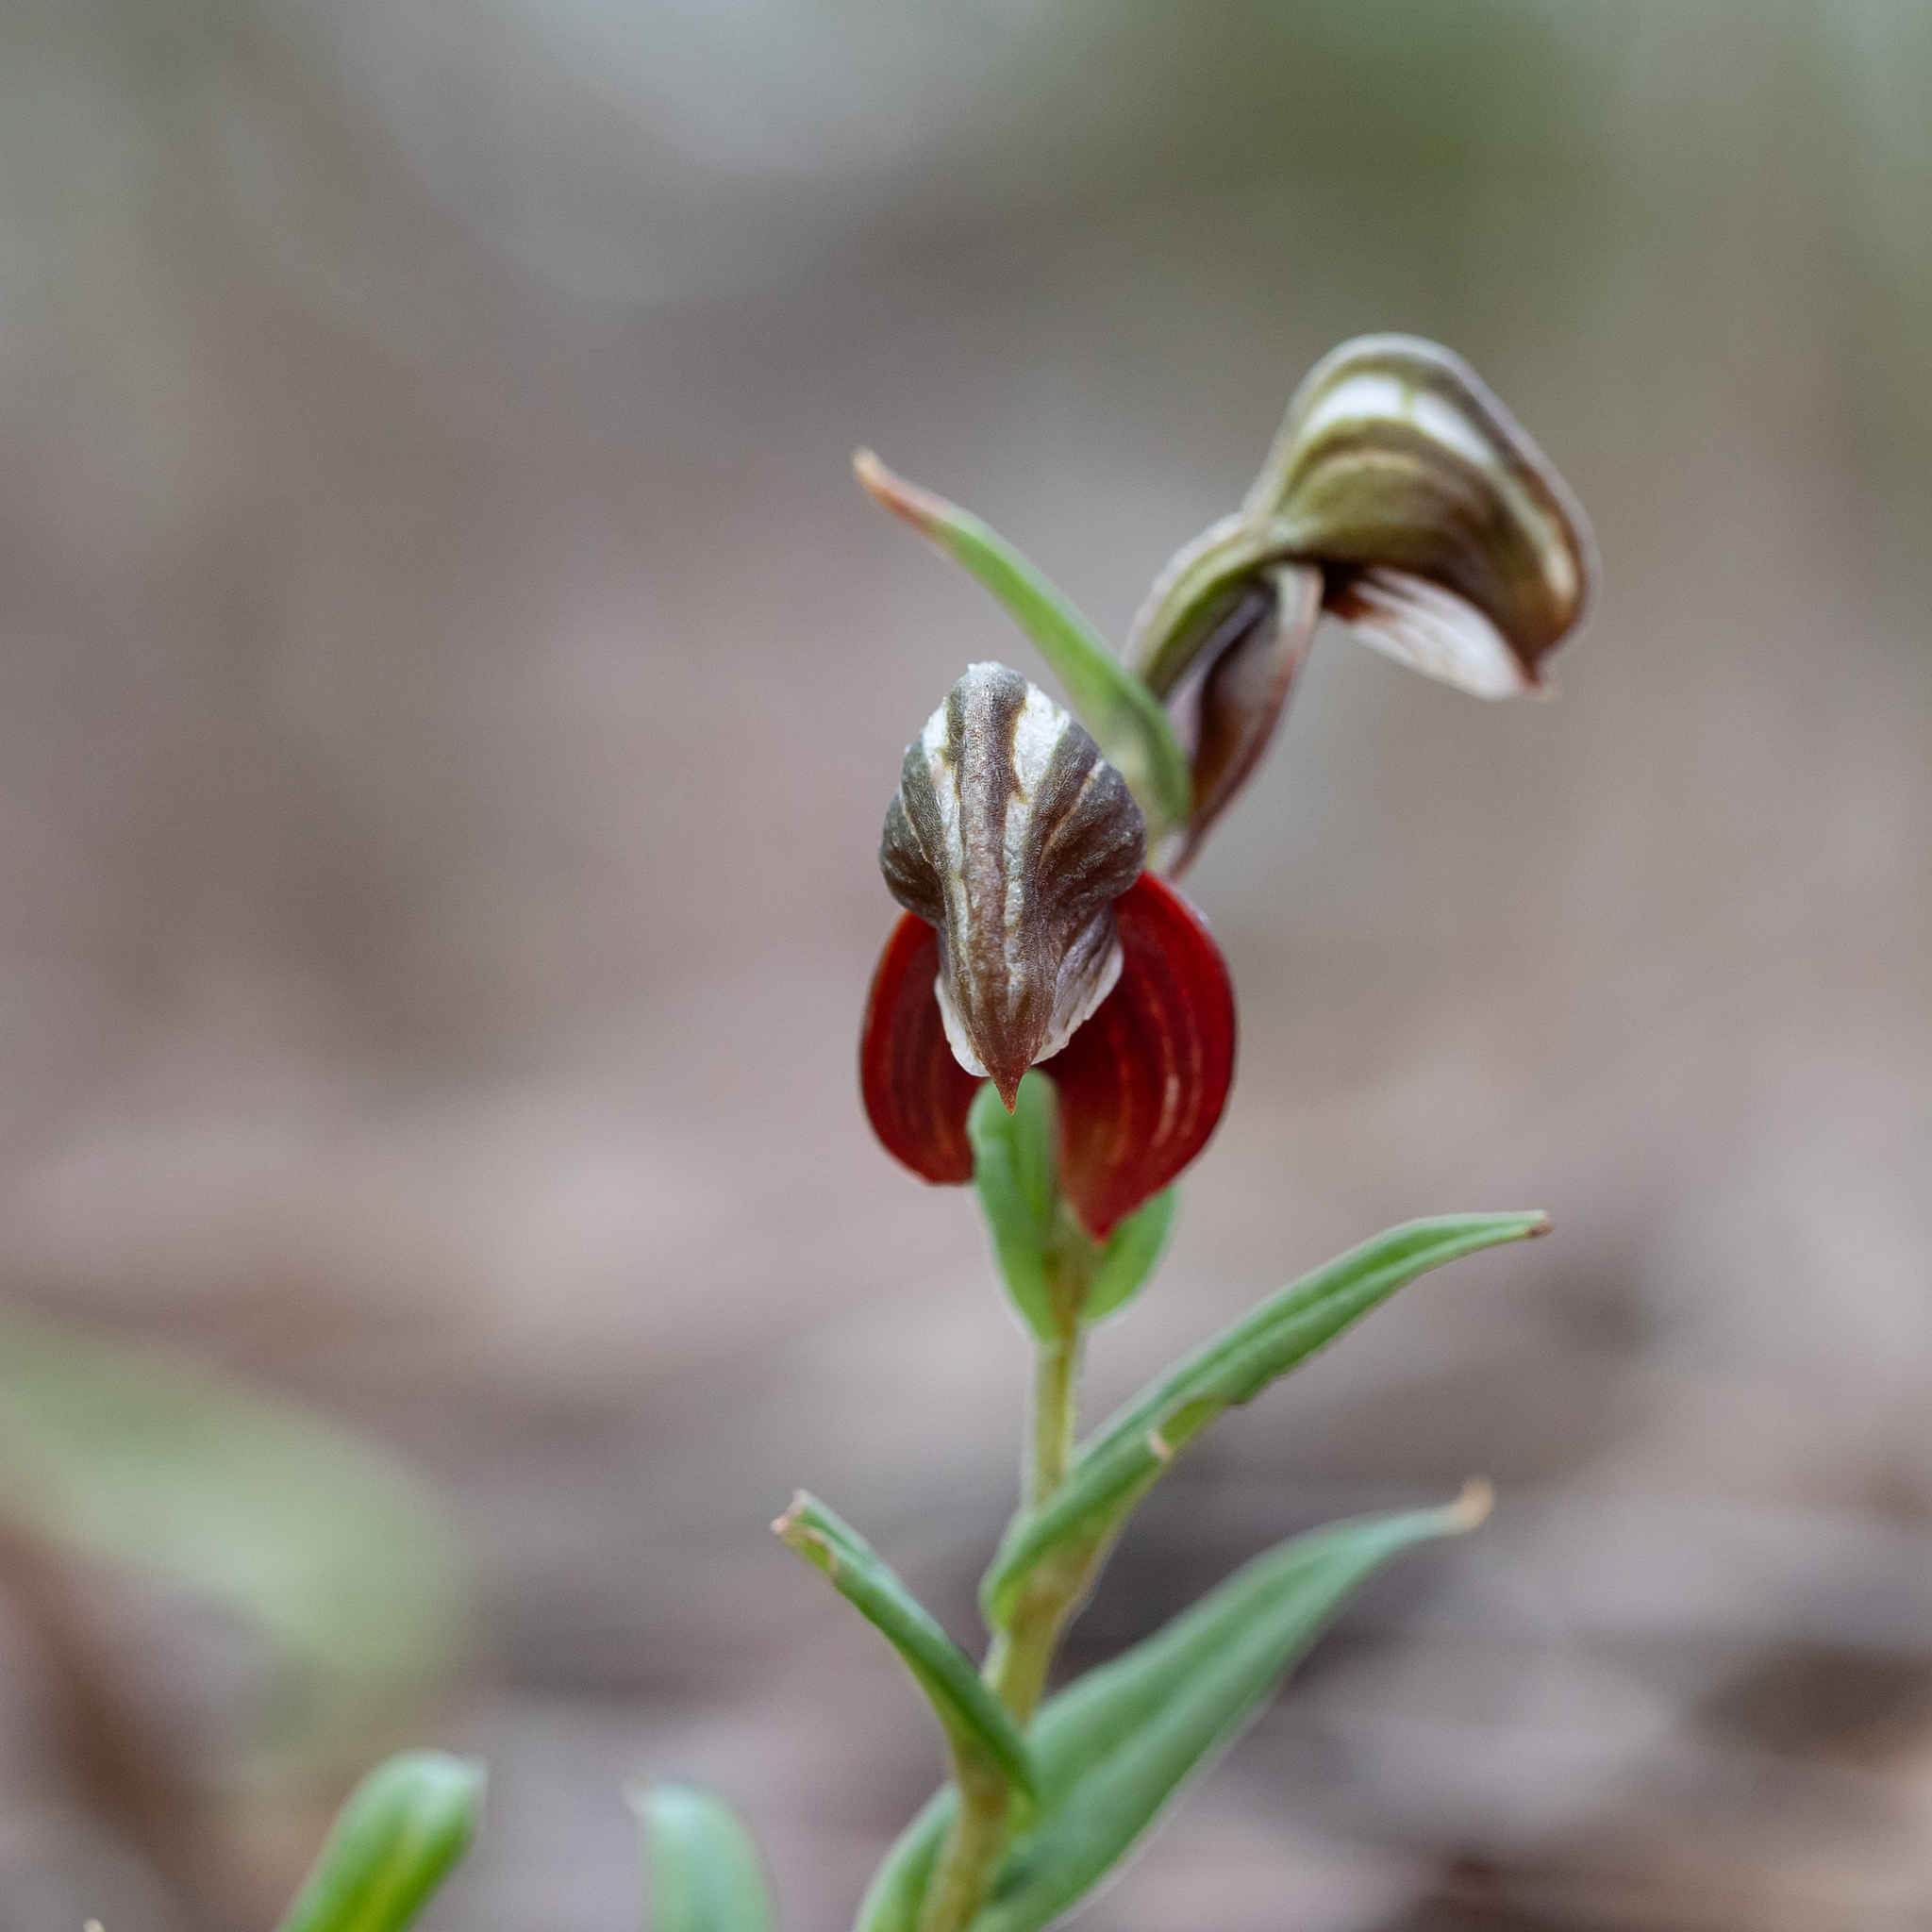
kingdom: Plantae
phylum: Tracheophyta
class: Liliopsida
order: Asparagales
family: Orchidaceae
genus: Pterostylis
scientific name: Pterostylis sanguinea
